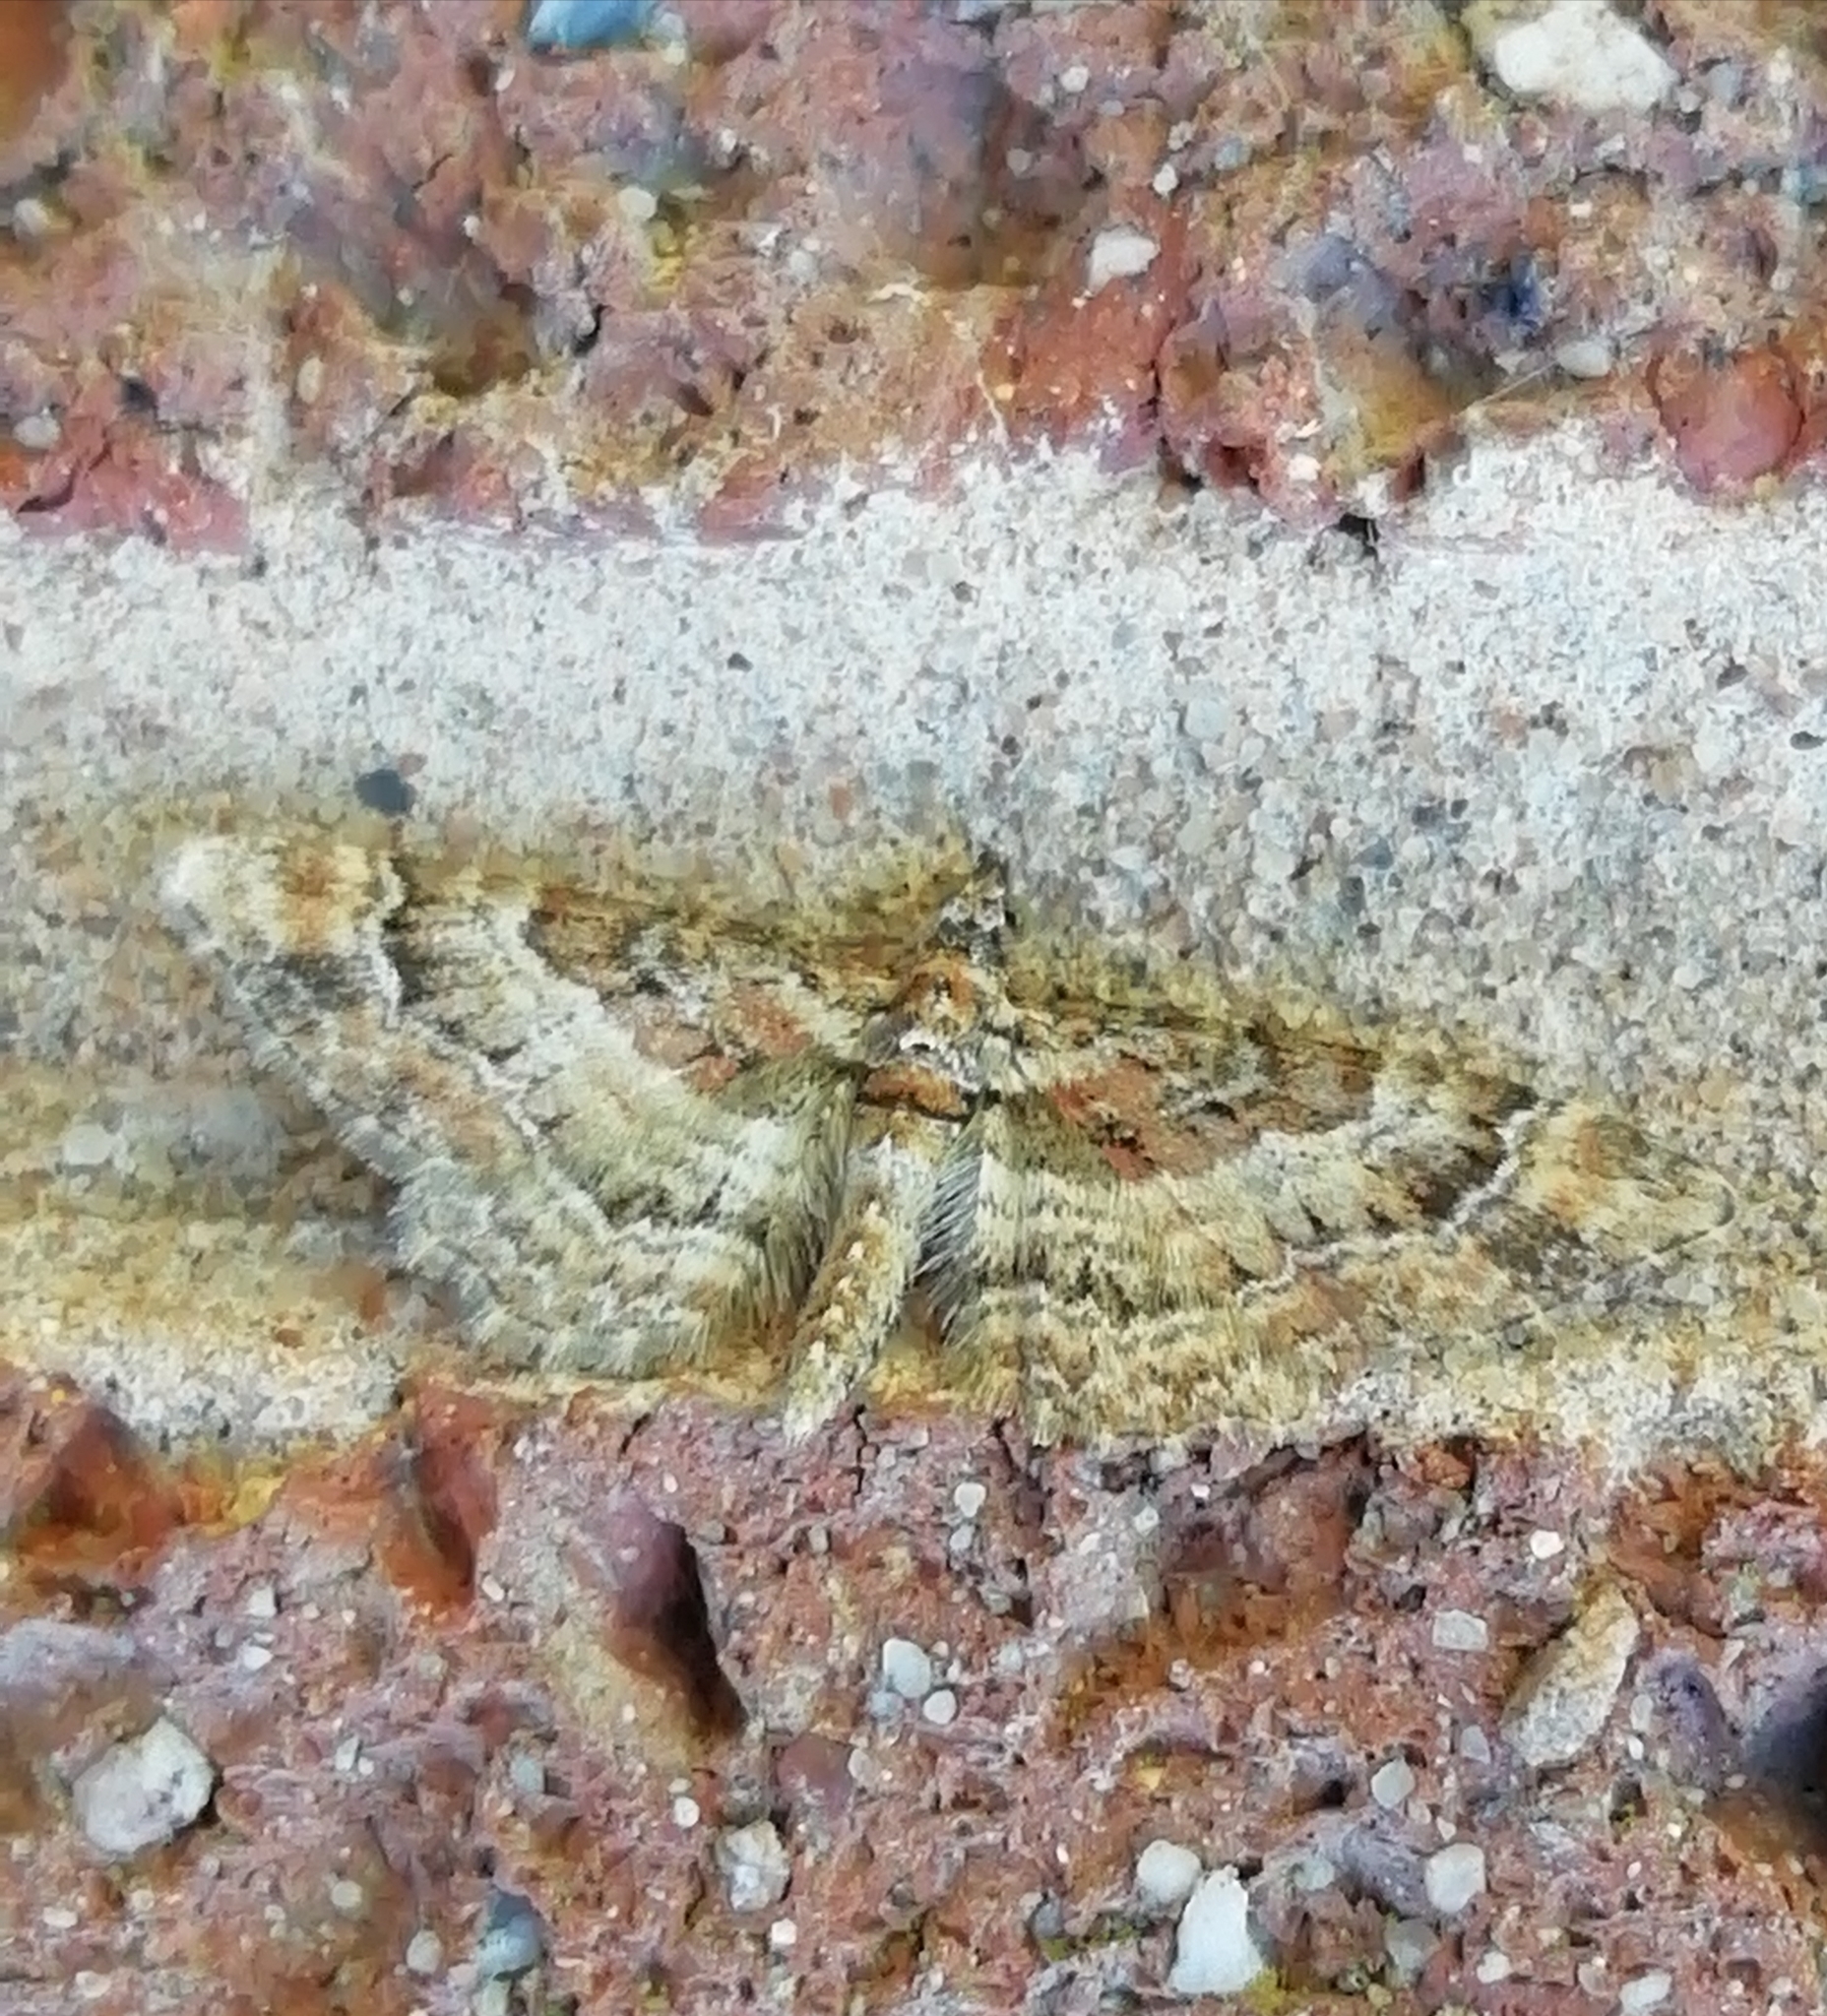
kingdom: Animalia
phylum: Arthropoda
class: Insecta
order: Lepidoptera
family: Geometridae
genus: Gymnoscelis
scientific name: Gymnoscelis rufifasciata
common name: Double-striped pug
